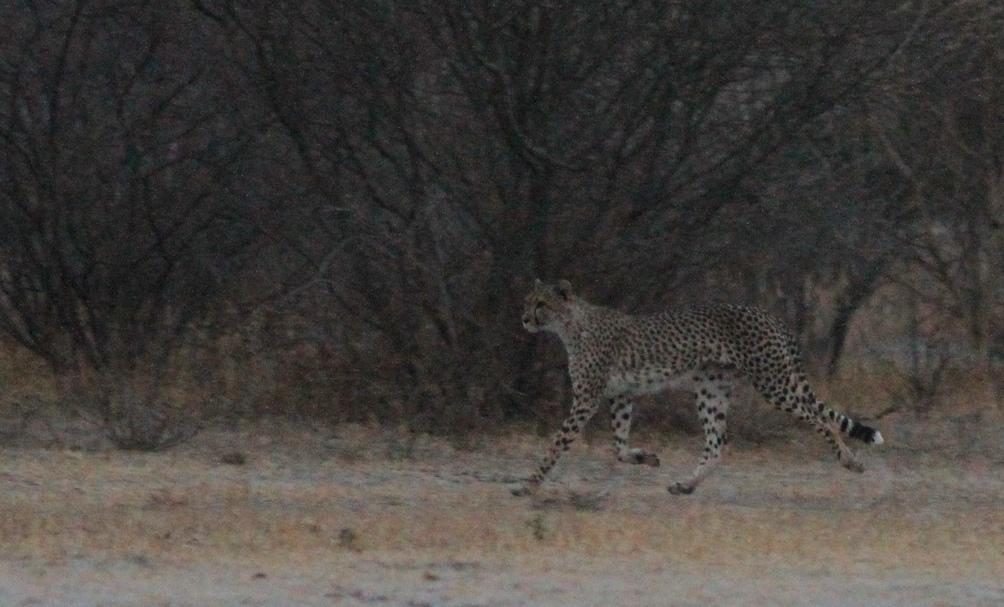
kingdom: Animalia
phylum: Chordata
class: Mammalia
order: Carnivora
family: Felidae
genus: Acinonyx
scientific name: Acinonyx jubatus
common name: Cheetah
